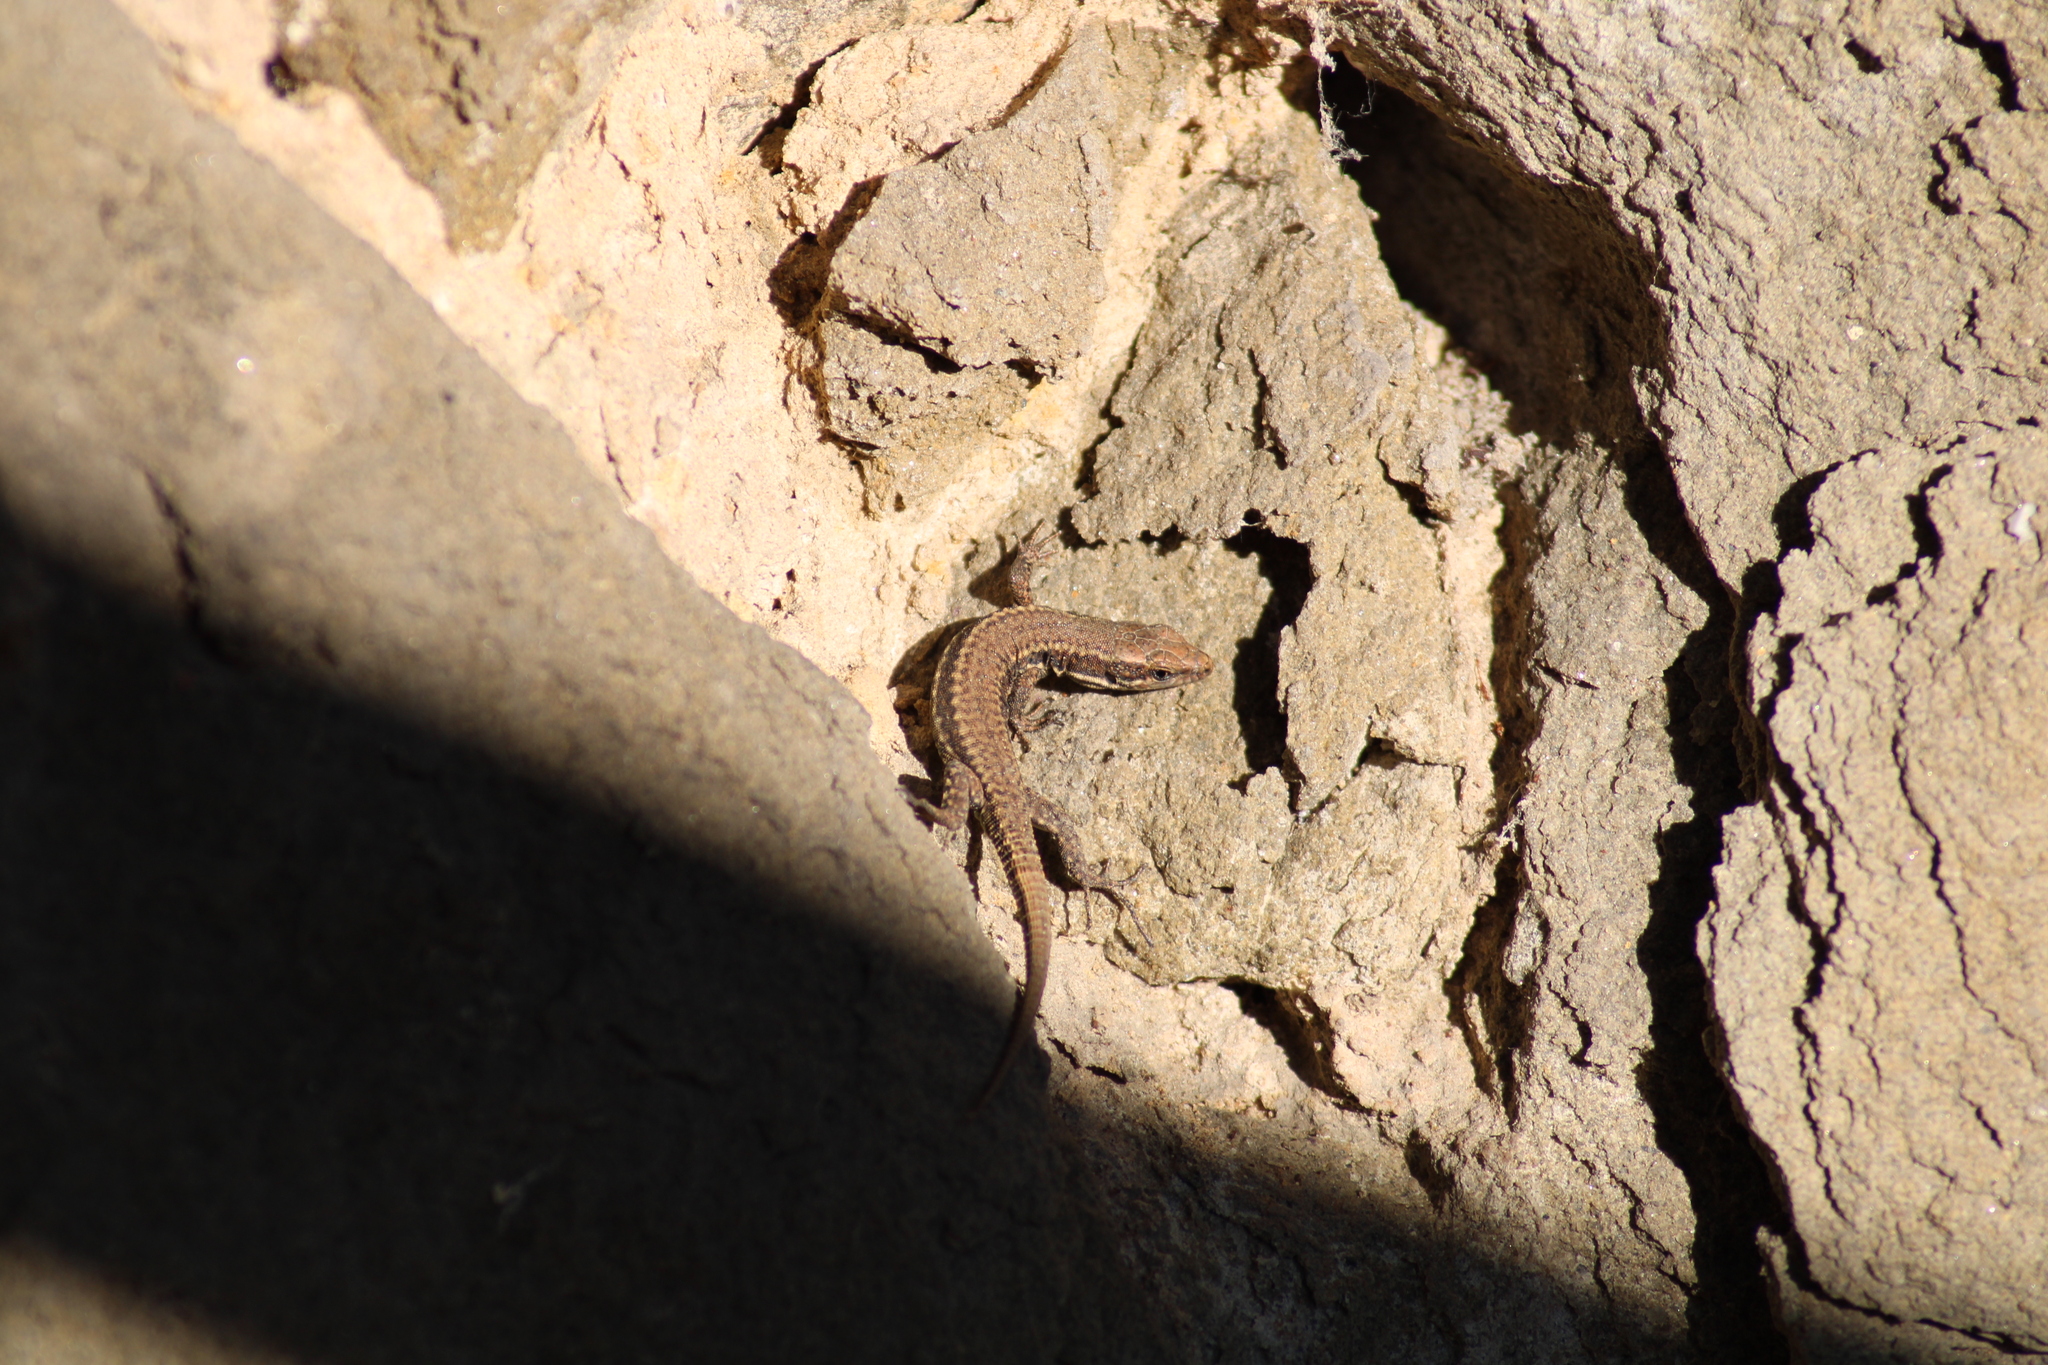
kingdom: Animalia
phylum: Chordata
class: Squamata
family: Lacertidae
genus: Podarcis
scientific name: Podarcis muralis
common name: Common wall lizard
